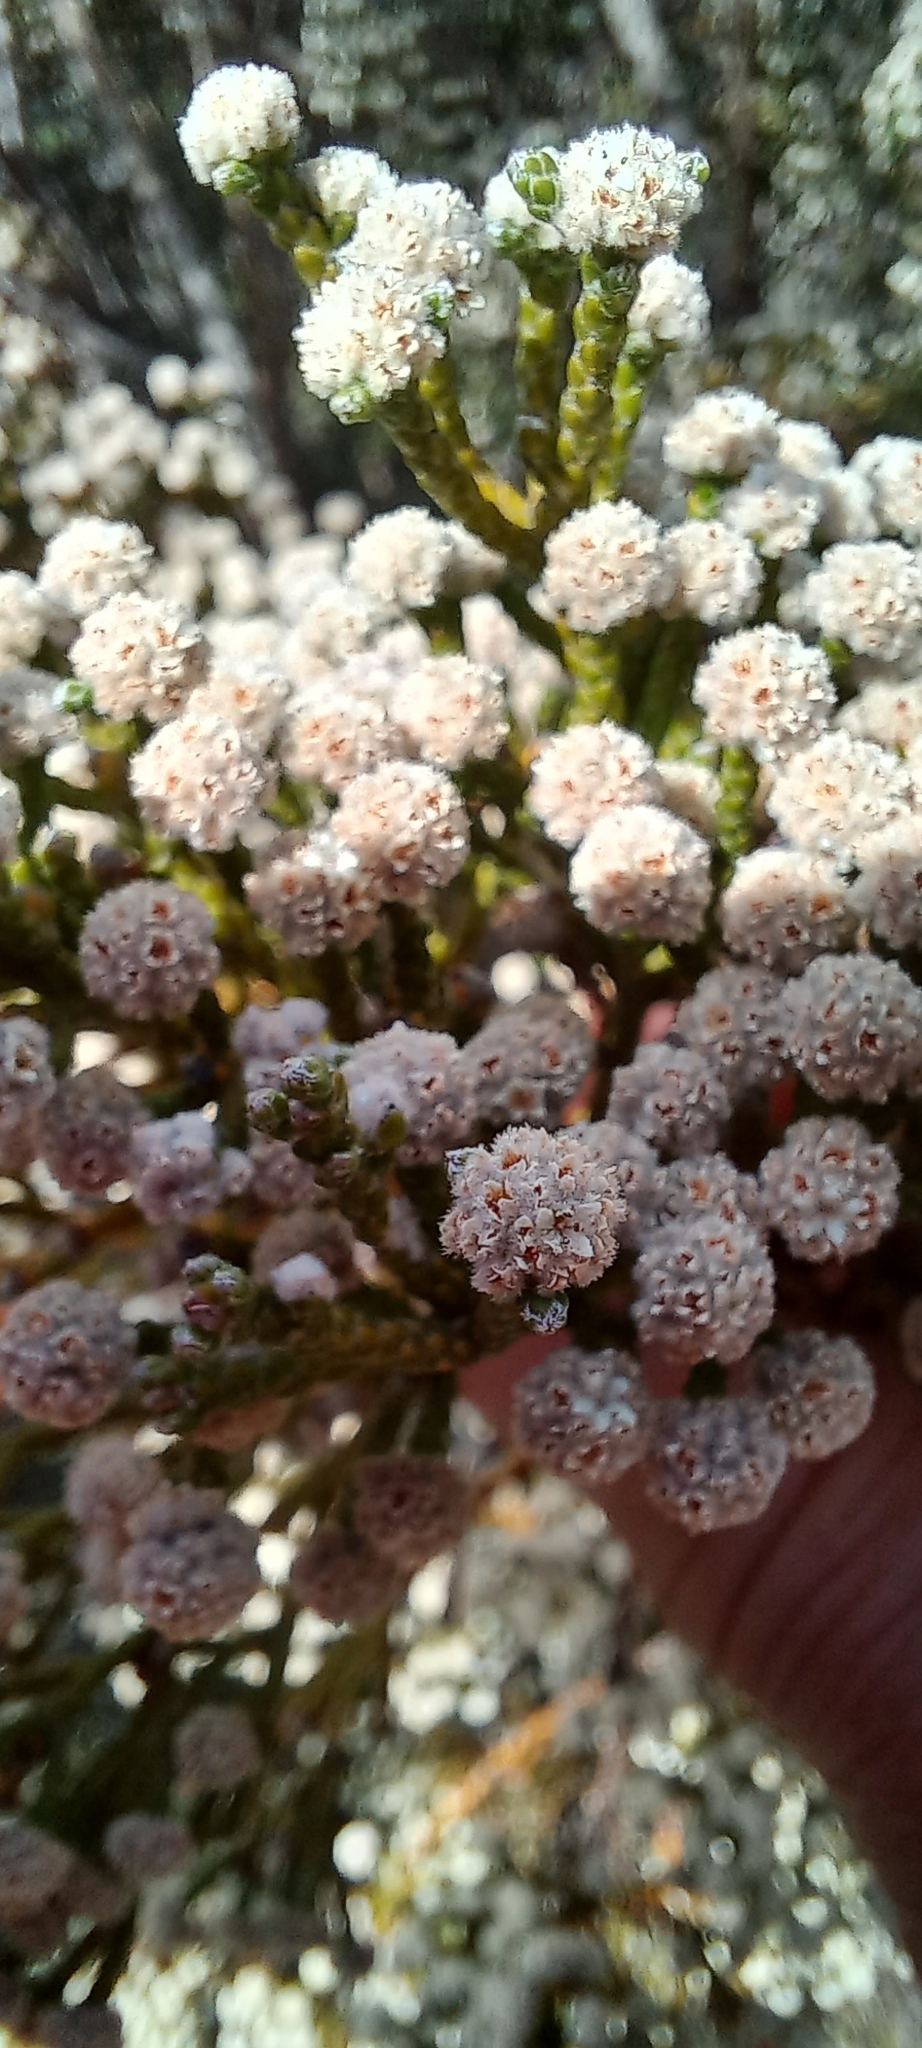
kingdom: Plantae
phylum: Tracheophyta
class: Magnoliopsida
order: Bruniales
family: Bruniaceae
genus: Brunia
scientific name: Brunia microphylla
